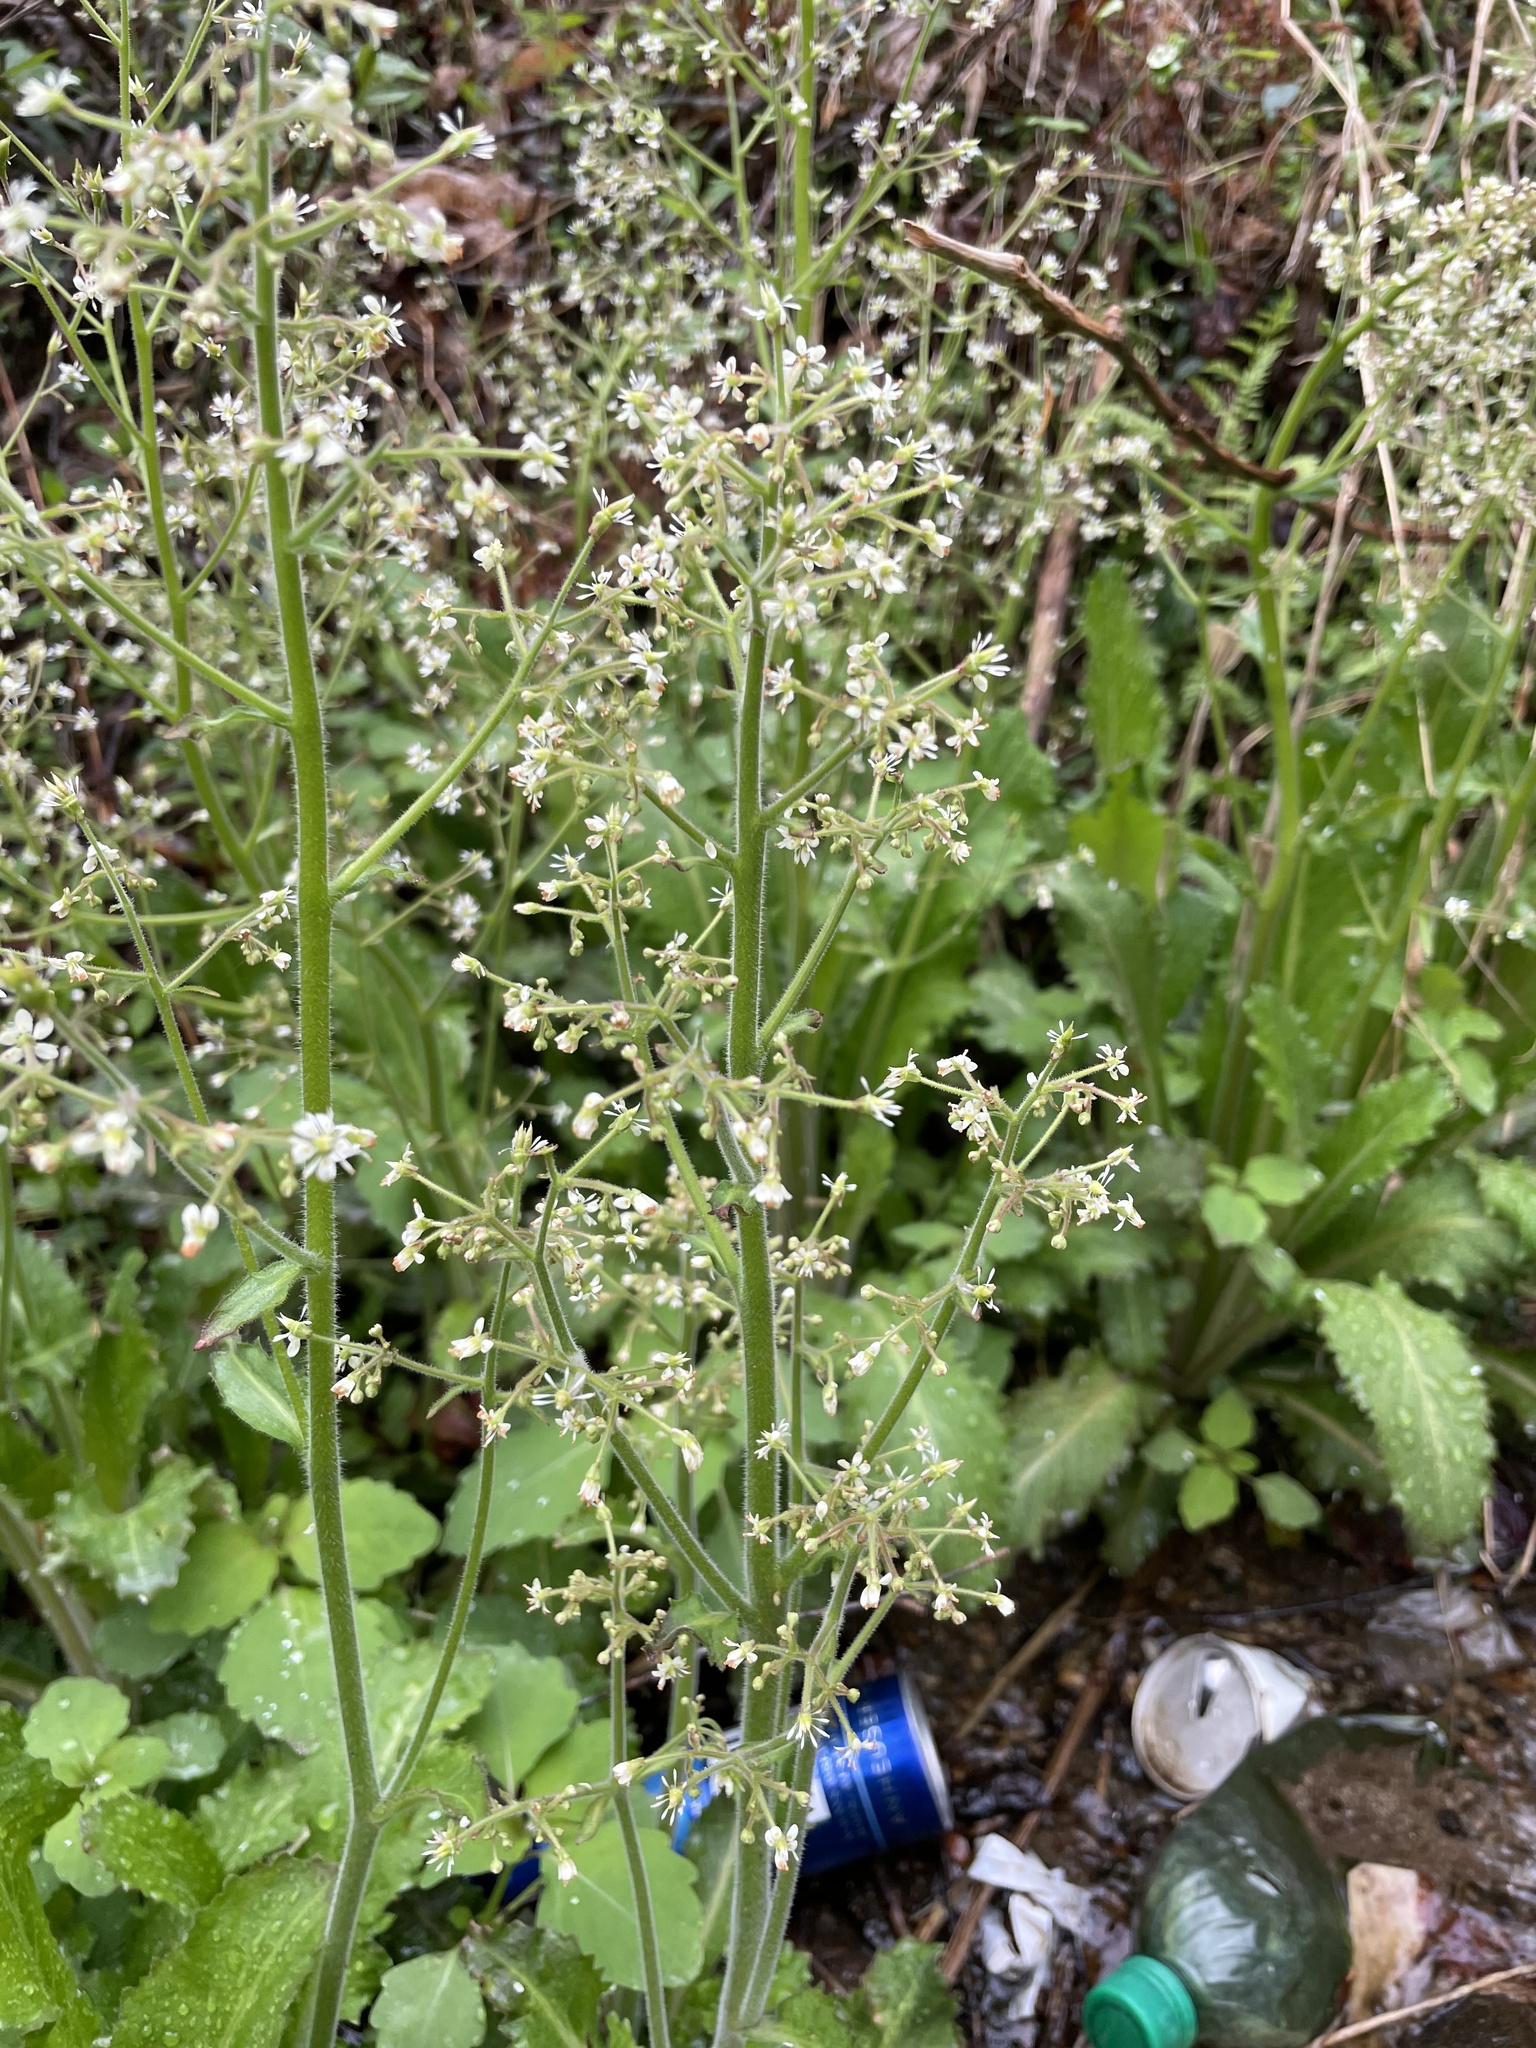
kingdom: Plantae
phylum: Tracheophyta
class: Magnoliopsida
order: Saxifragales
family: Saxifragaceae
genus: Micranthes
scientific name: Micranthes micranthidifolia
